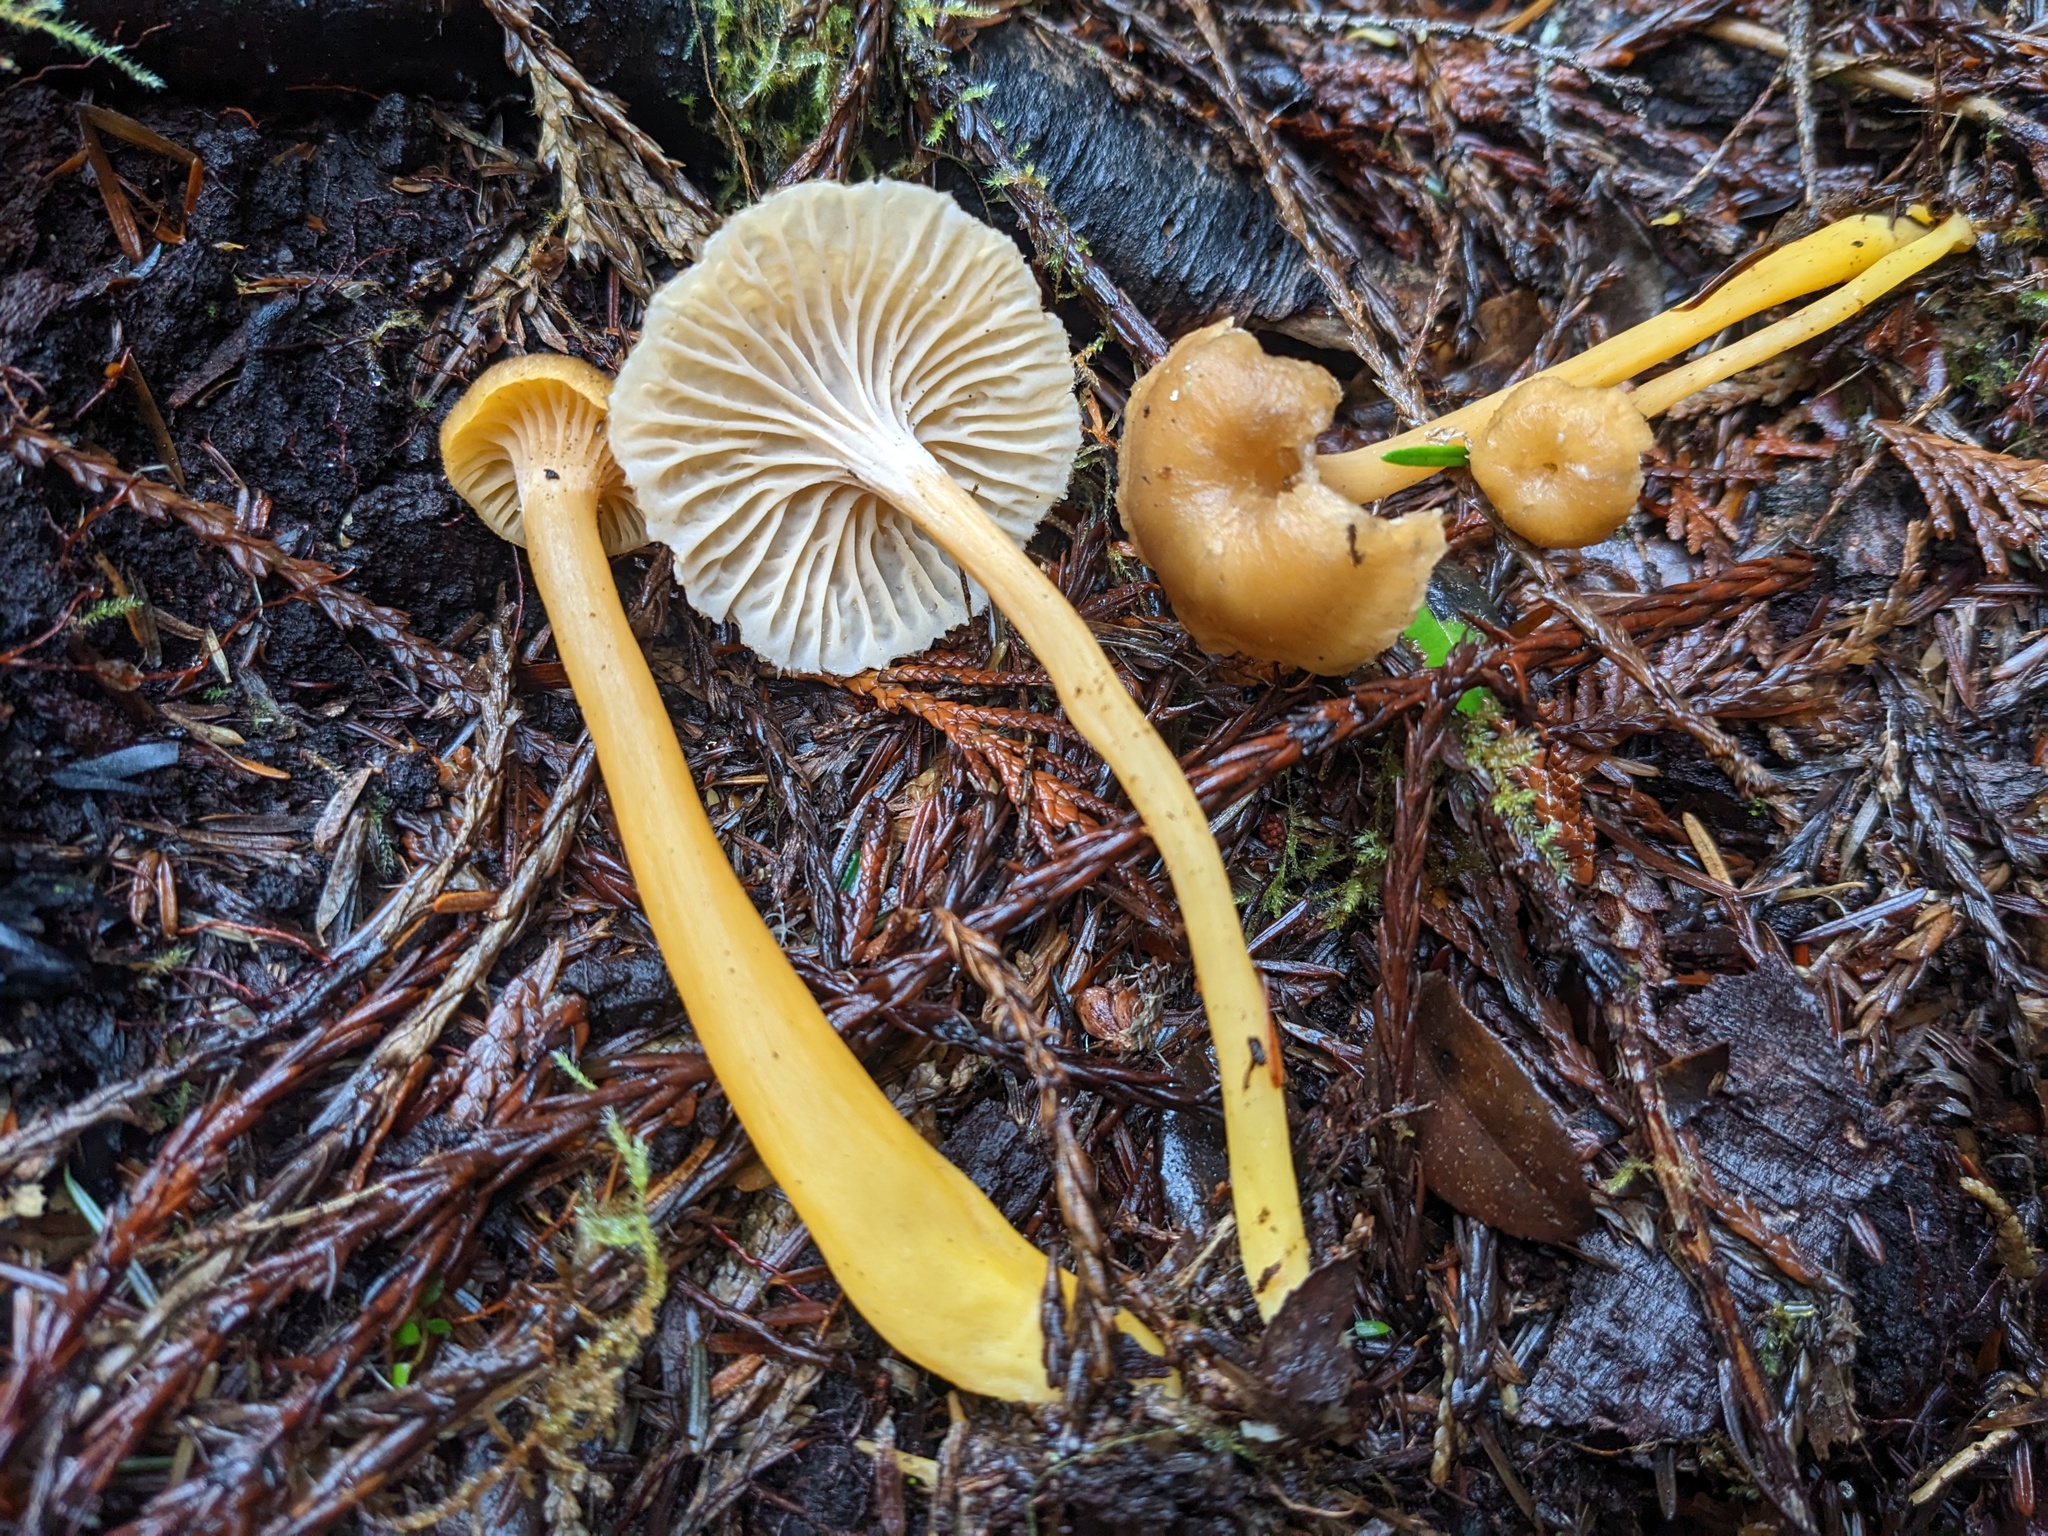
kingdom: Fungi
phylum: Basidiomycota
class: Agaricomycetes
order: Cantharellales
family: Hydnaceae
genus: Craterellus
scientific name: Craterellus tubaeformis
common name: Yellowfoot
